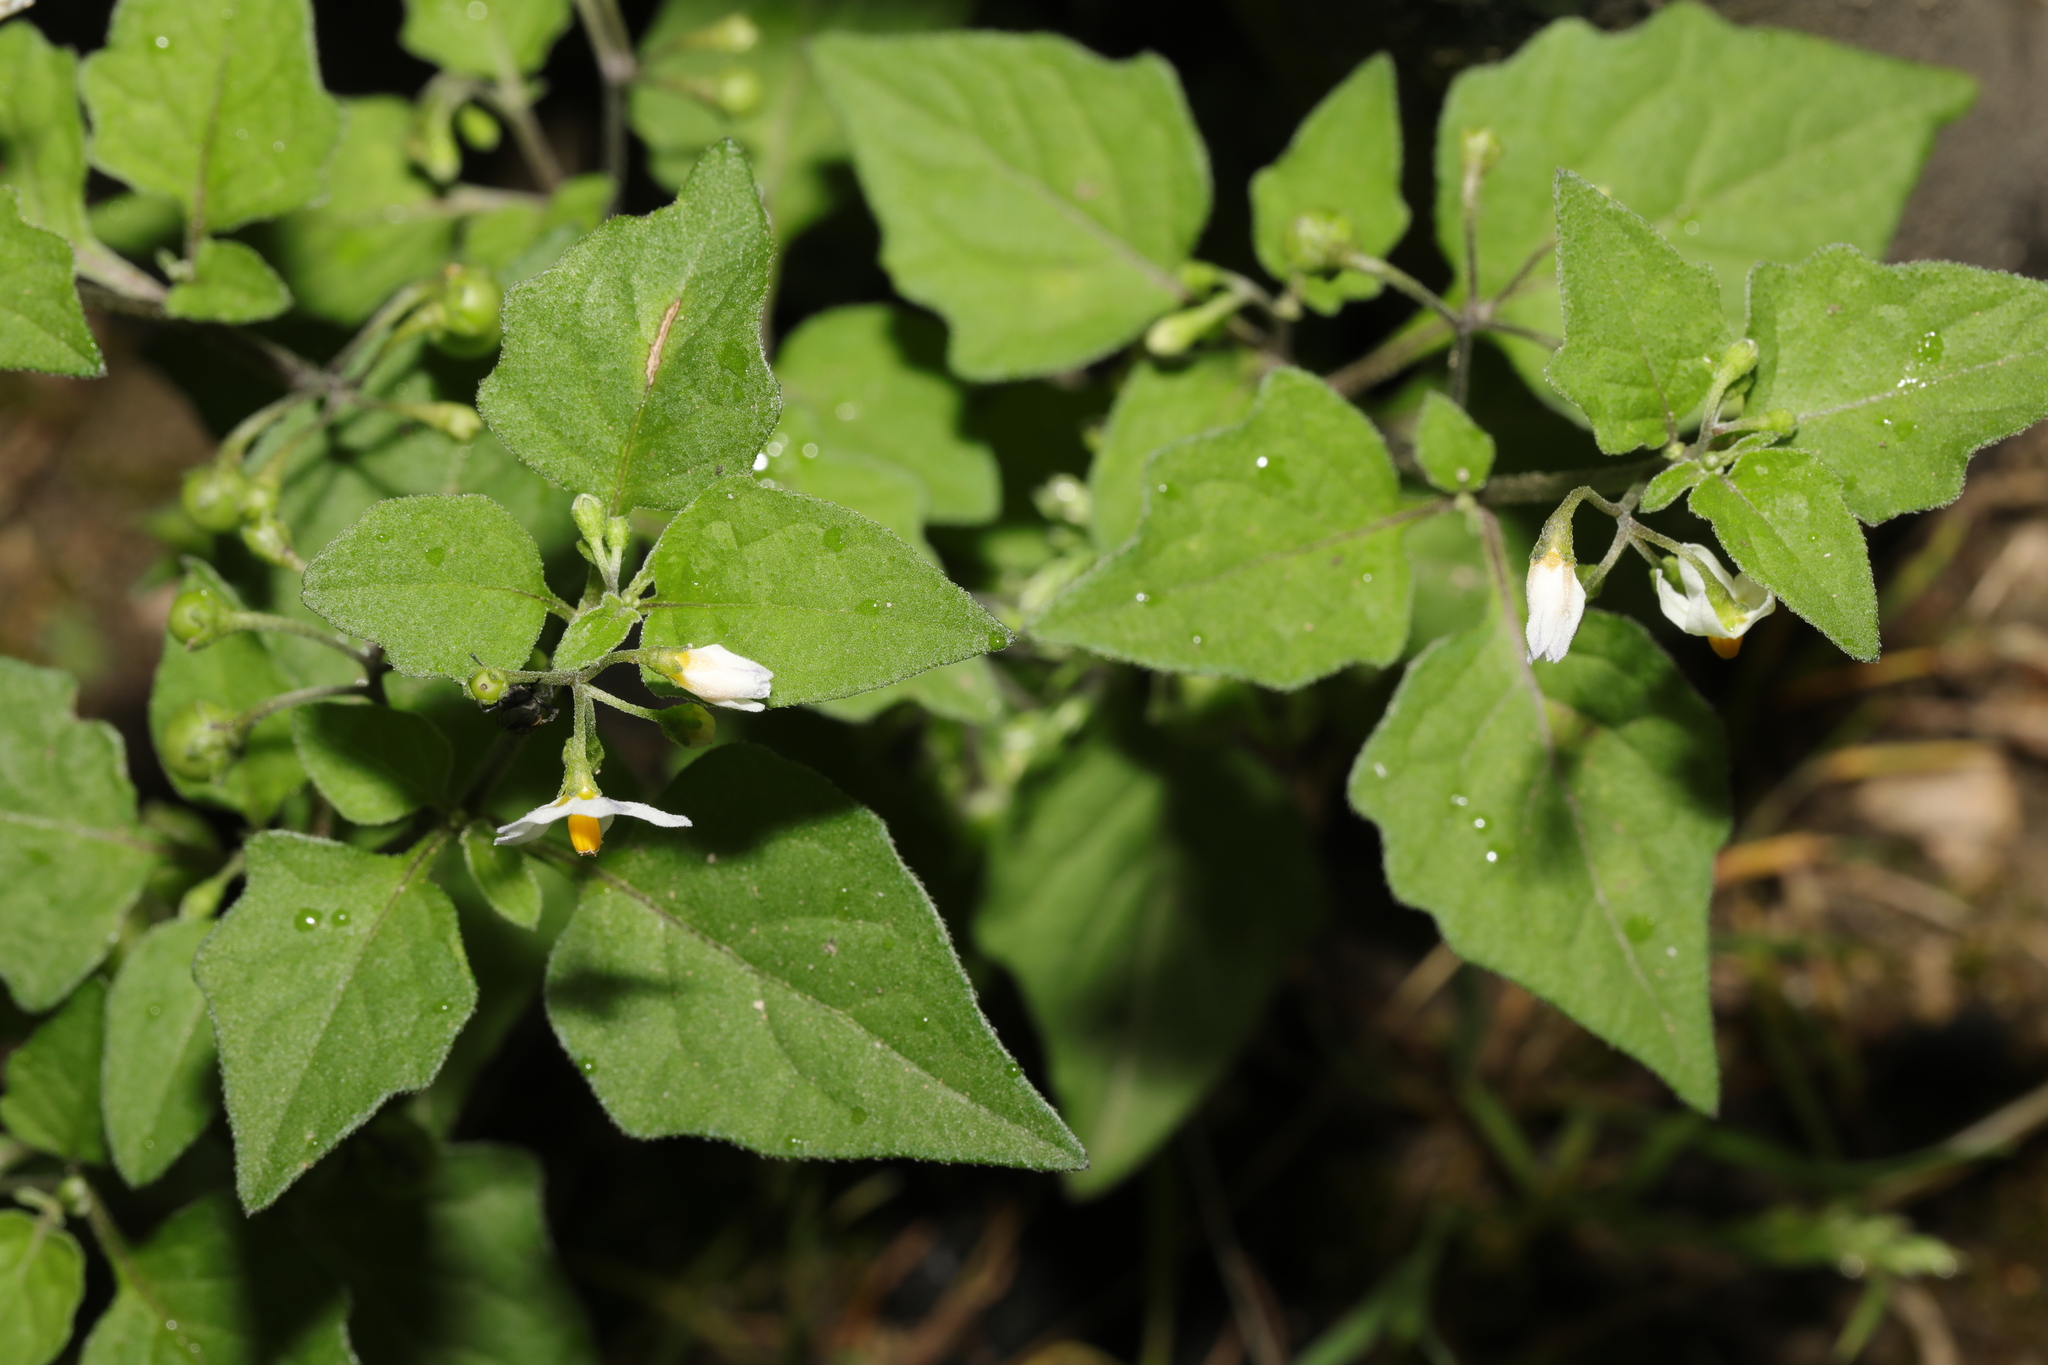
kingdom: Plantae
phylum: Tracheophyta
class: Magnoliopsida
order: Solanales
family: Solanaceae
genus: Solanum
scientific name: Solanum nigrum
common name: Black nightshade
